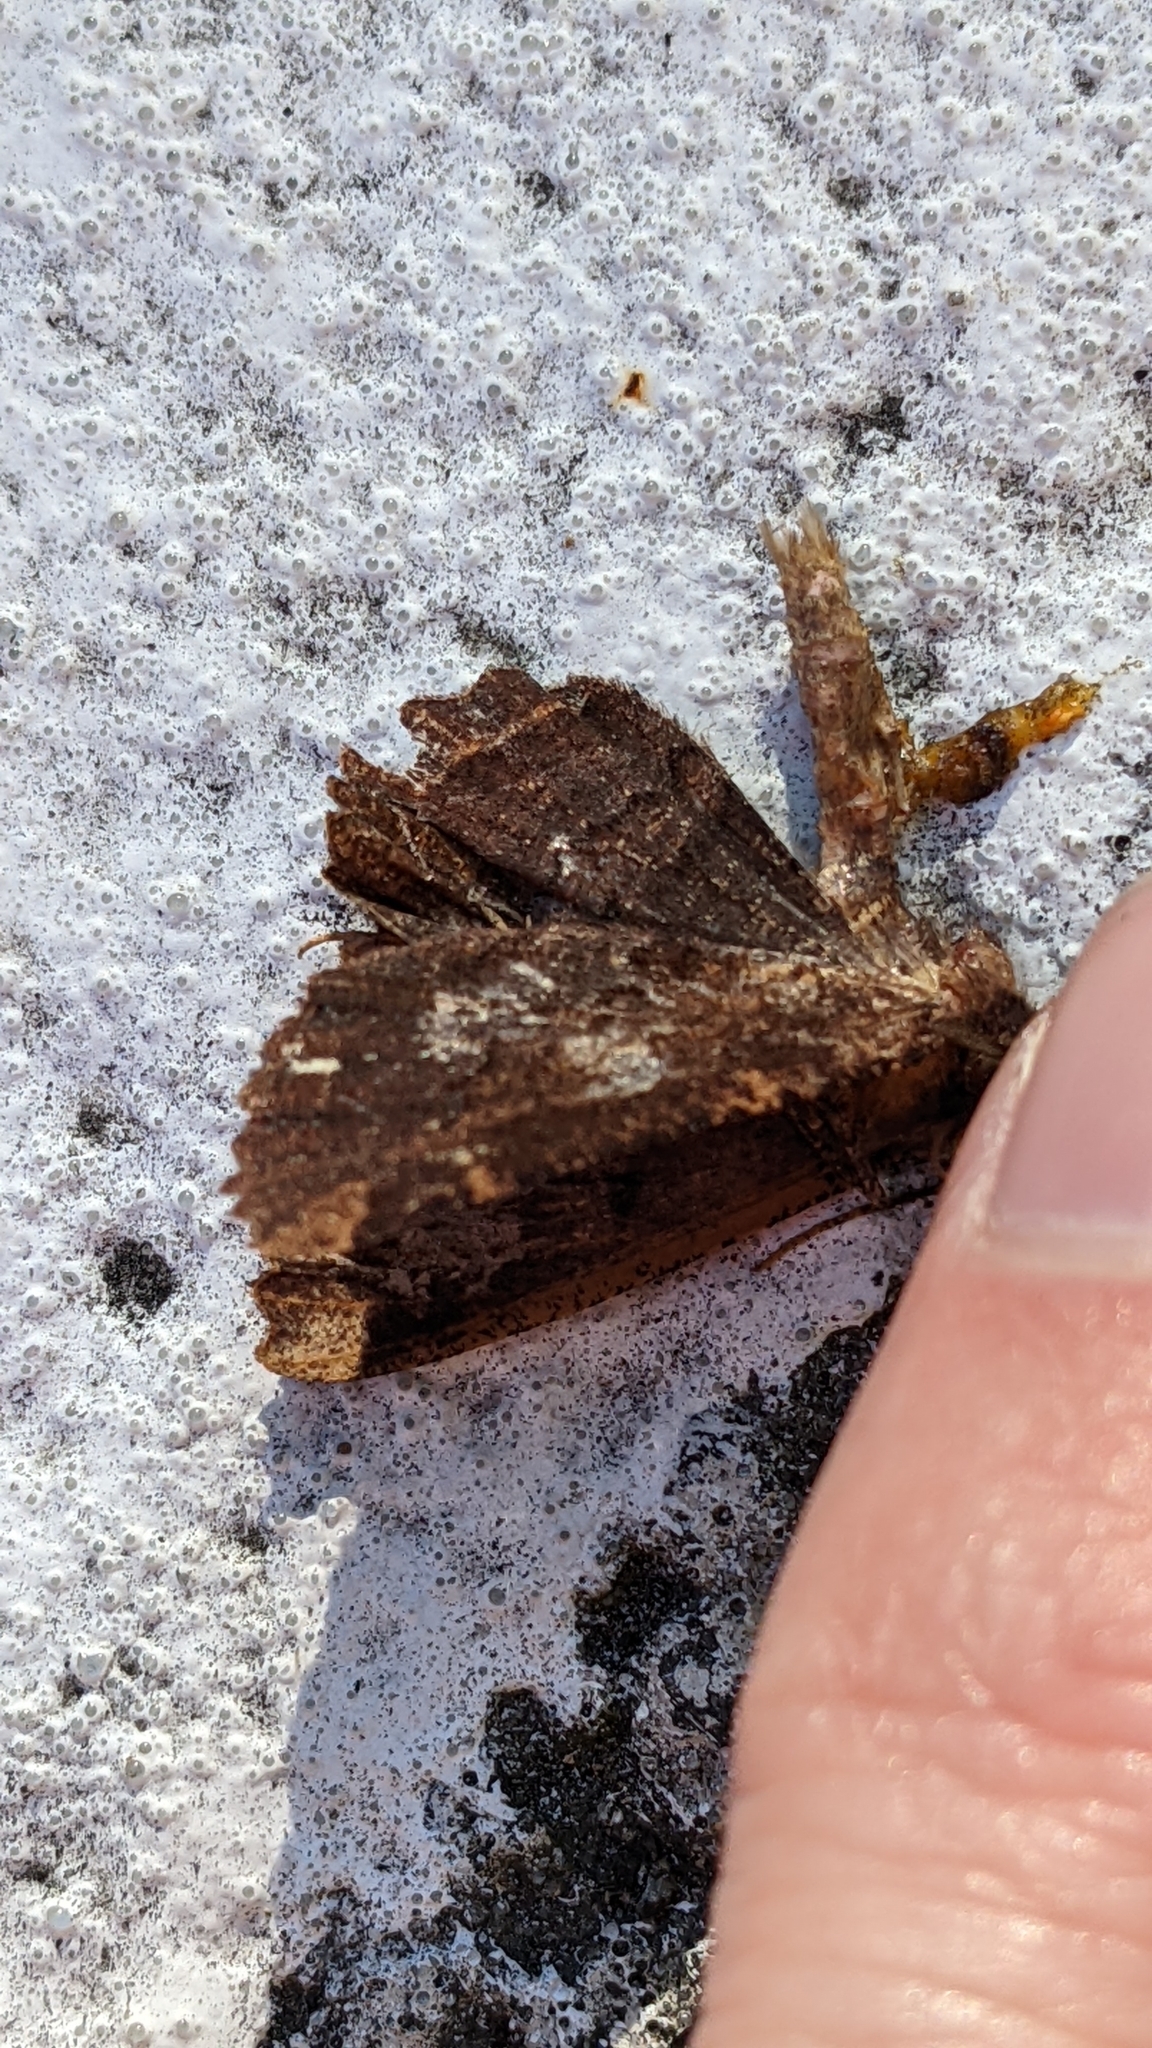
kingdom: Animalia
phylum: Arthropoda
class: Insecta
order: Lepidoptera
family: Geometridae
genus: Gellonia
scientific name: Gellonia dejectaria
